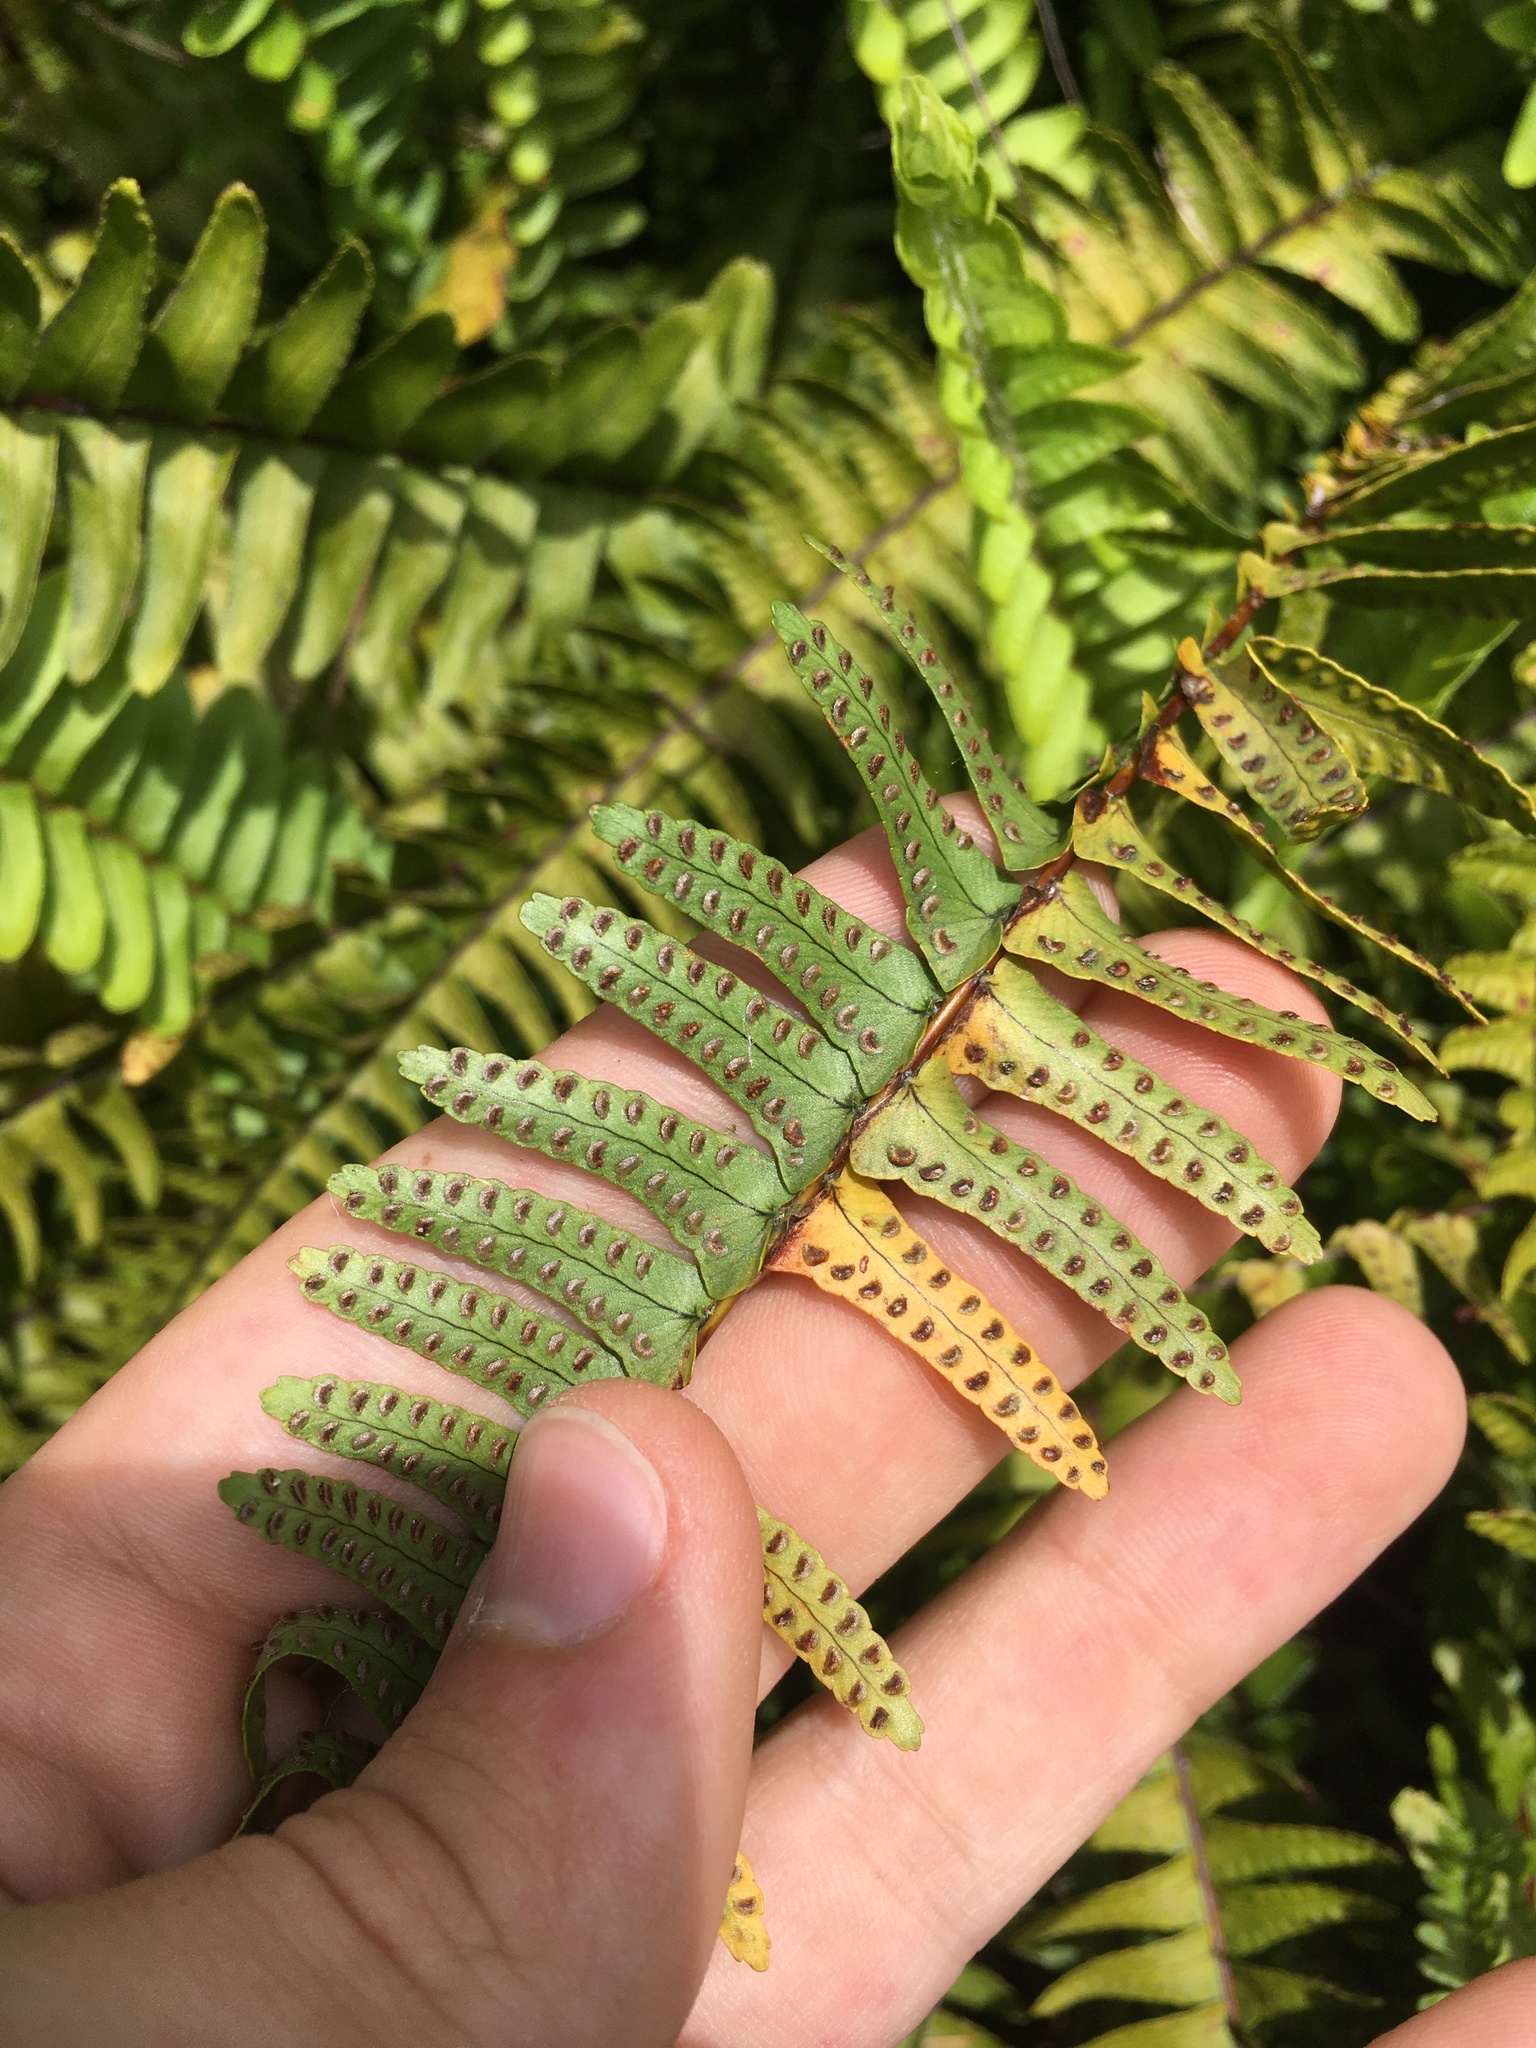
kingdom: Plantae
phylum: Tracheophyta
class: Polypodiopsida
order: Polypodiales
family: Nephrolepidaceae
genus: Nephrolepis
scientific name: Nephrolepis flexuosa
